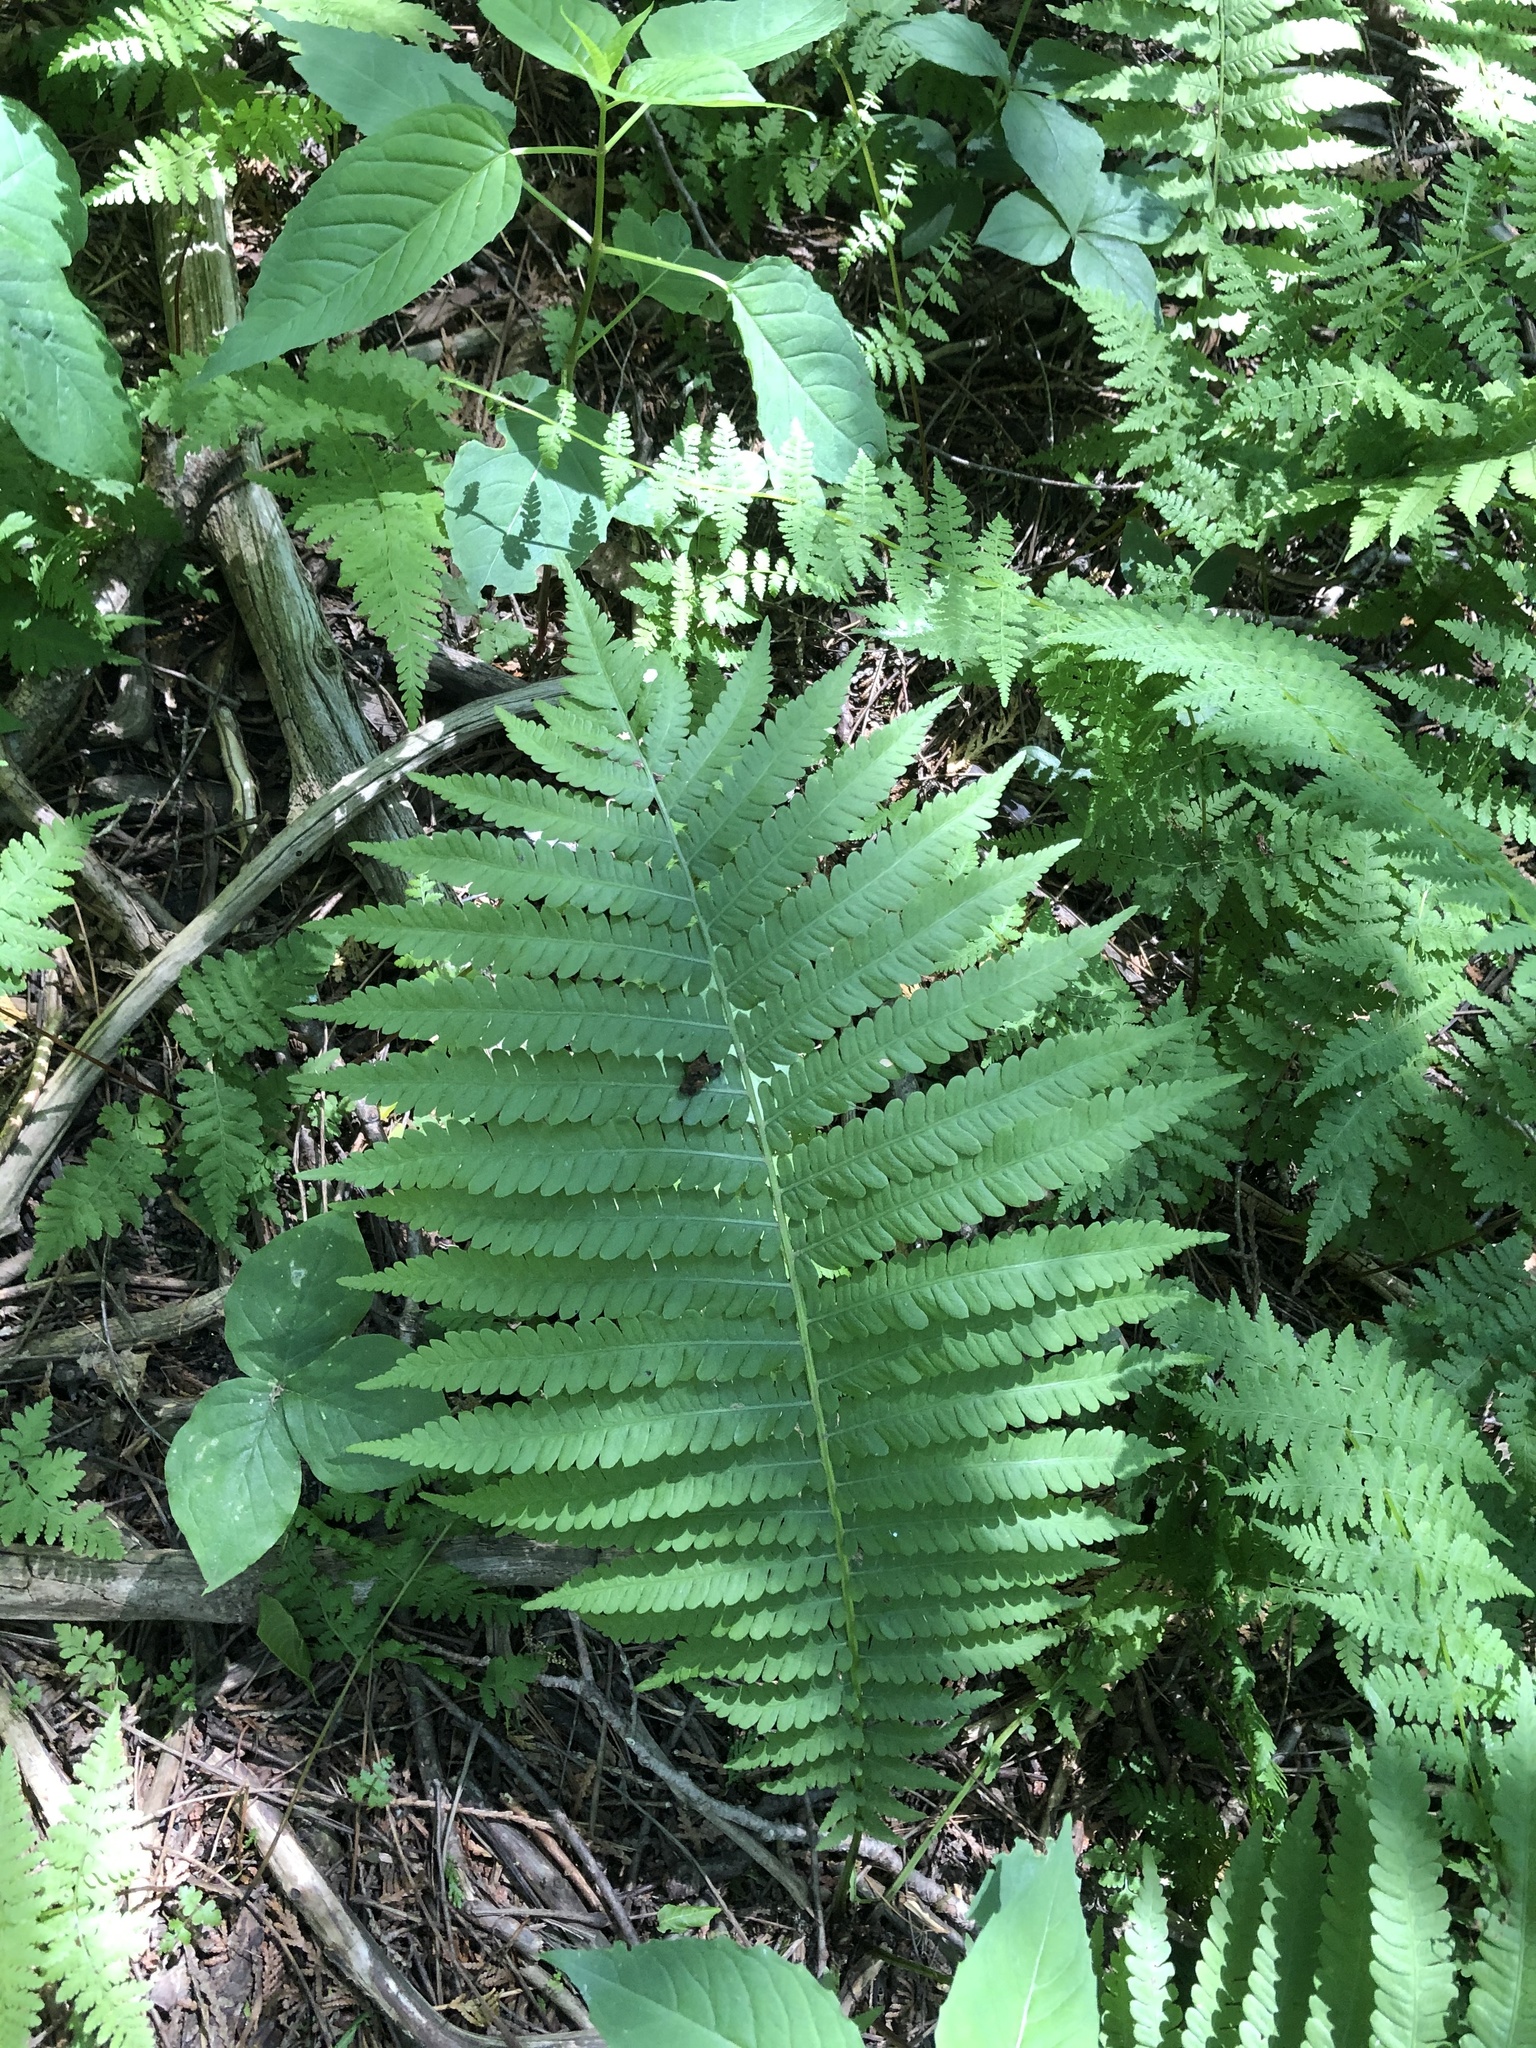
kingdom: Plantae
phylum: Tracheophyta
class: Polypodiopsida
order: Polypodiales
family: Onocleaceae
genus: Matteuccia
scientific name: Matteuccia struthiopteris
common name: Ostrich fern
